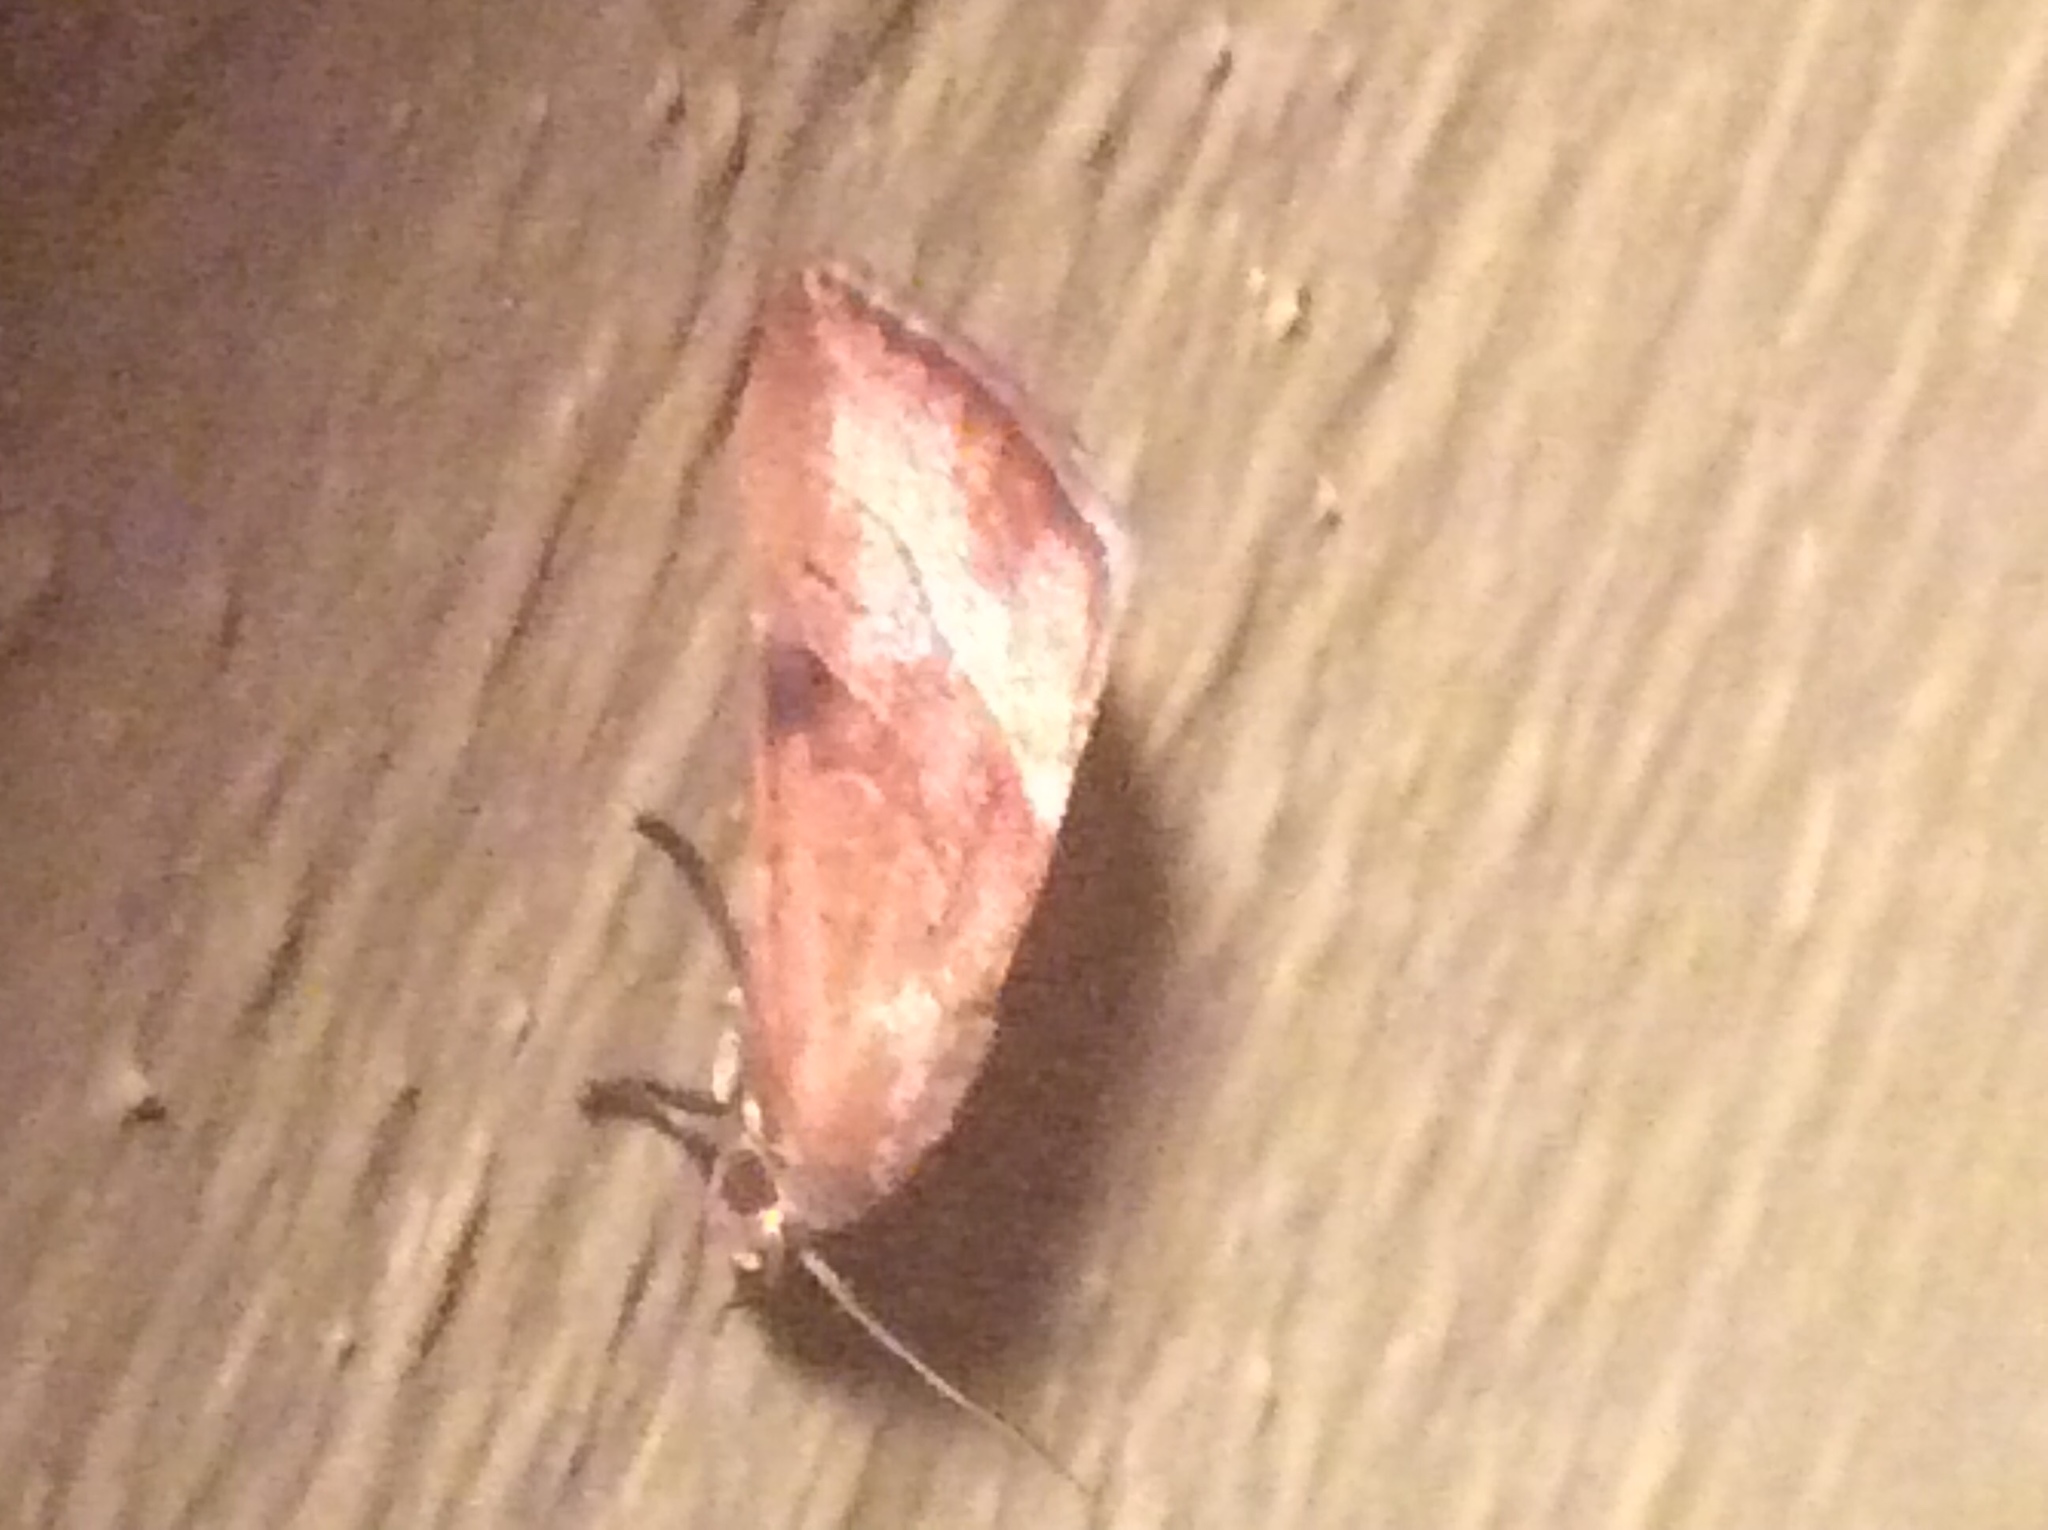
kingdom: Animalia
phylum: Arthropoda
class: Insecta
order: Lepidoptera
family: Noctuidae
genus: Galgula
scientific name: Galgula partita
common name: Wedgeling
